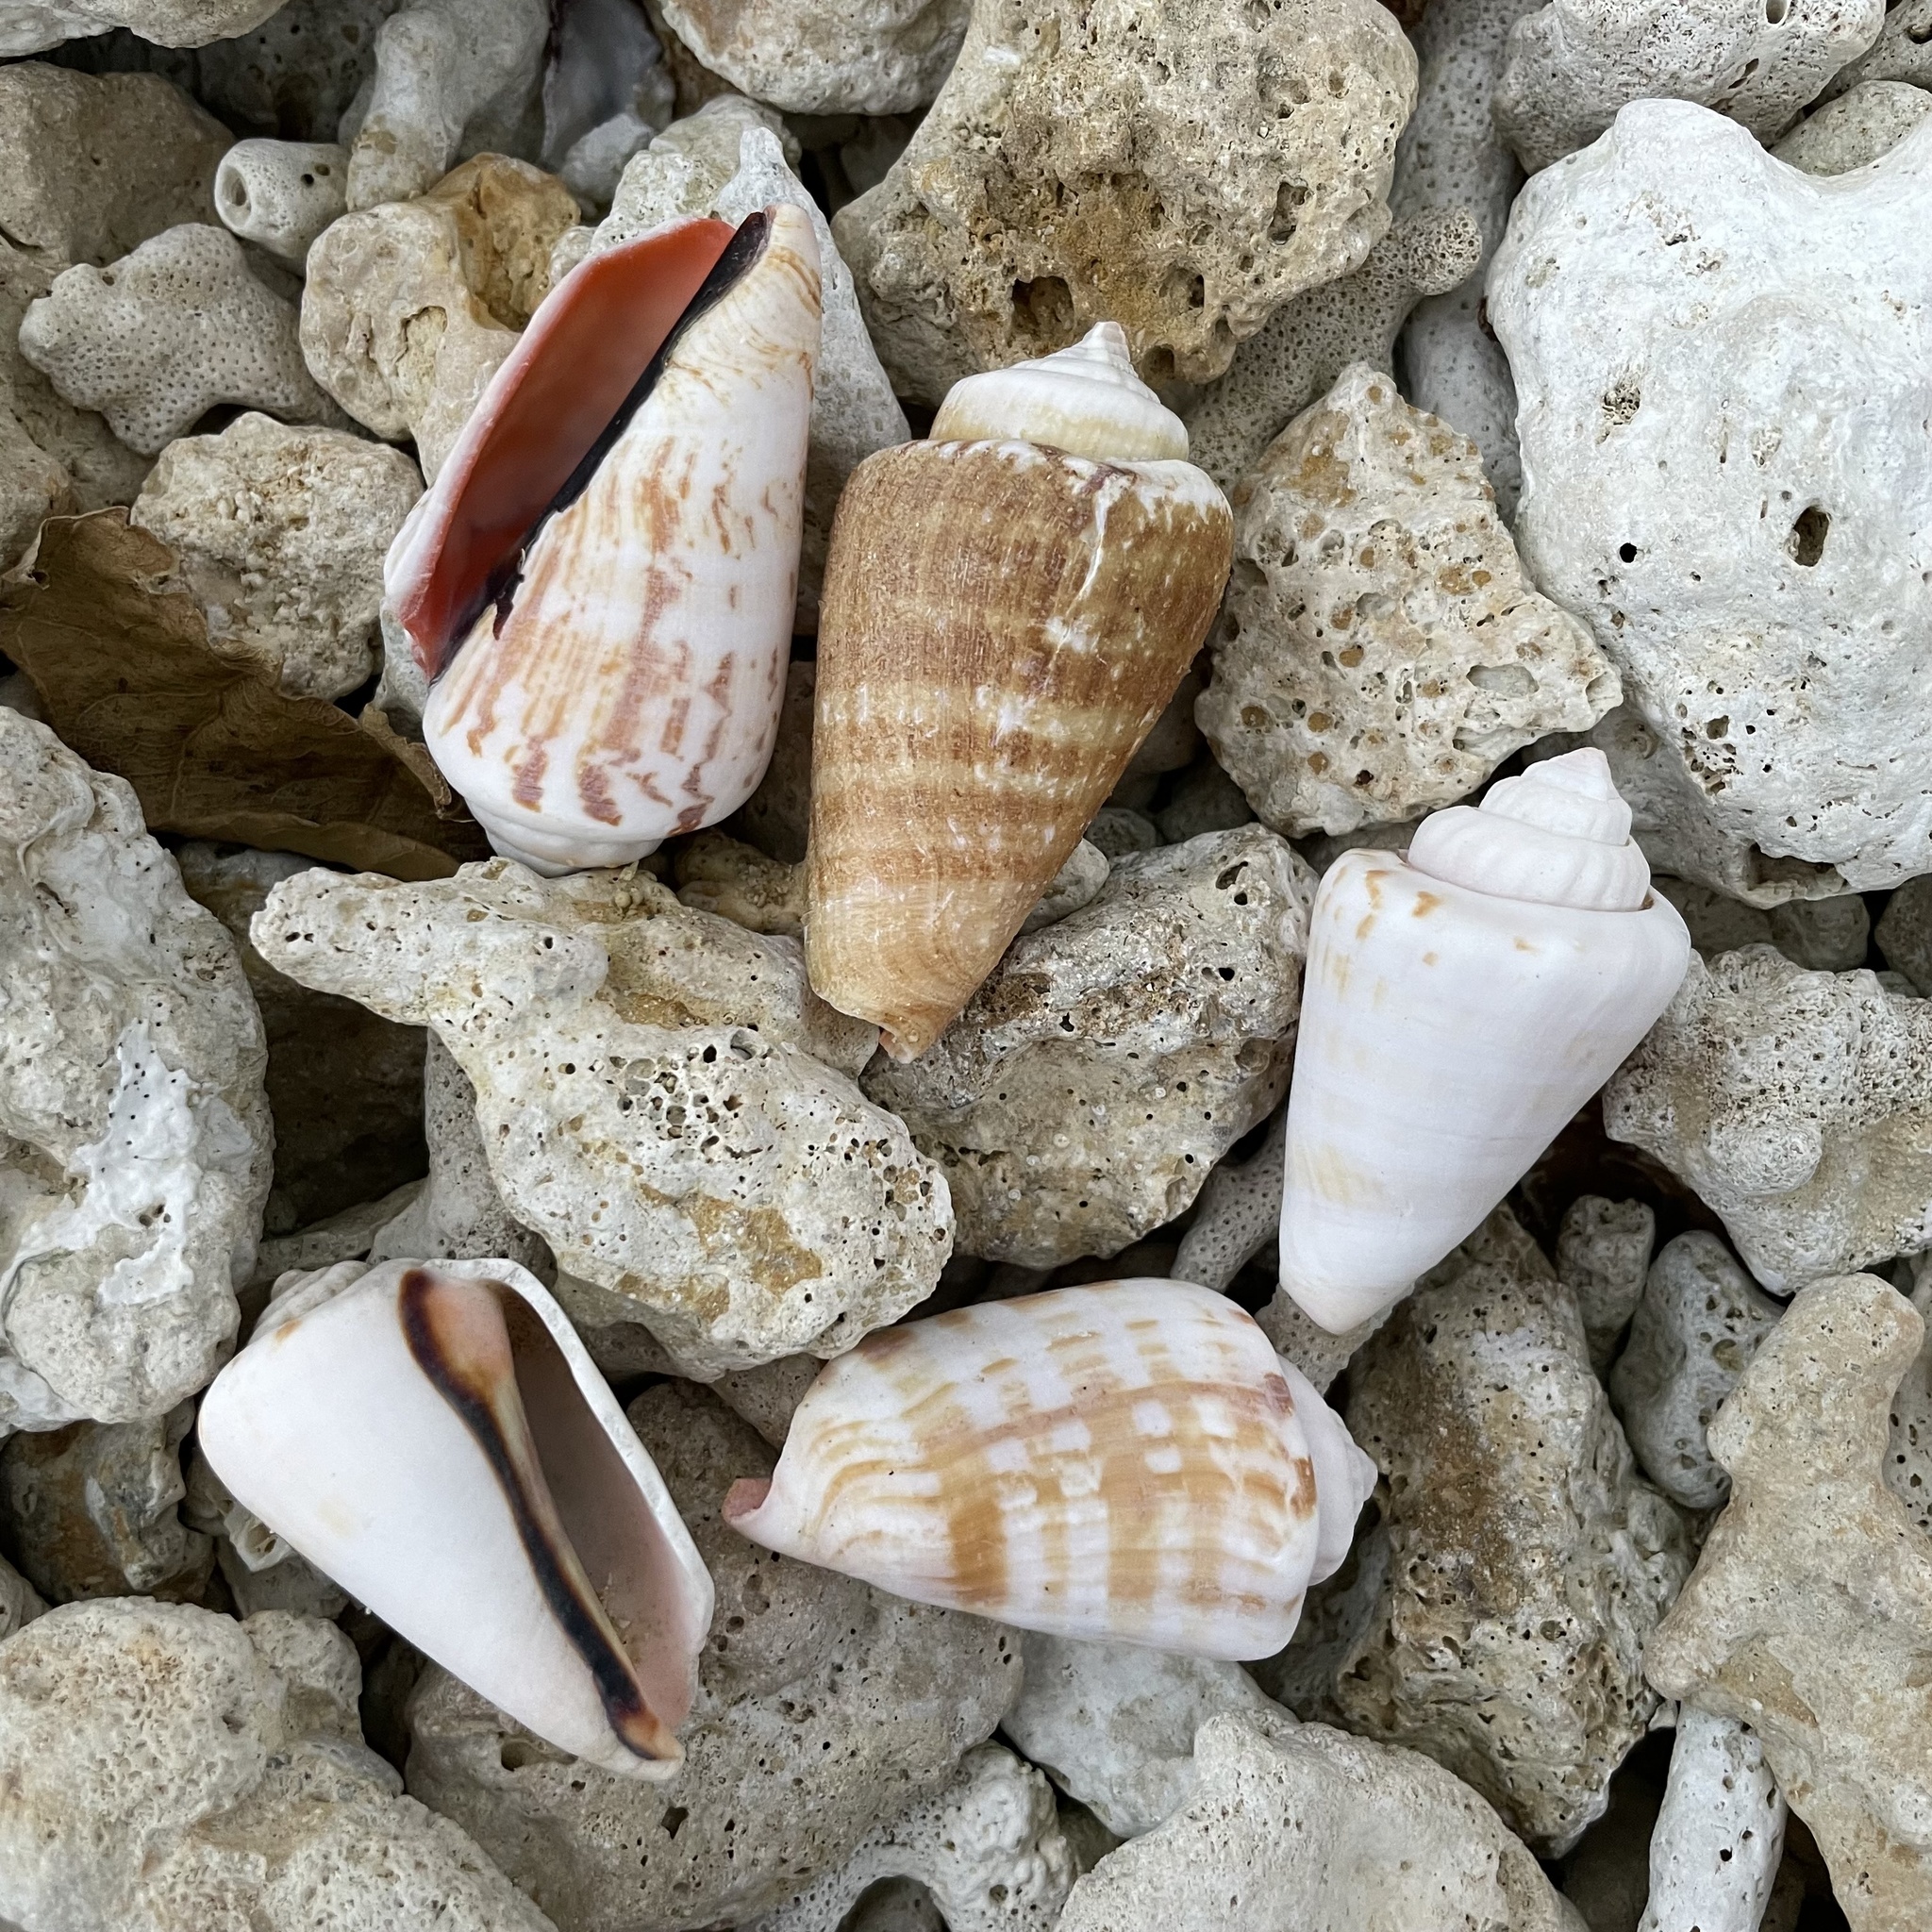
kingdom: Animalia
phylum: Mollusca
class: Gastropoda
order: Littorinimorpha
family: Strombidae
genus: Conomurex
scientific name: Conomurex luhuanus
